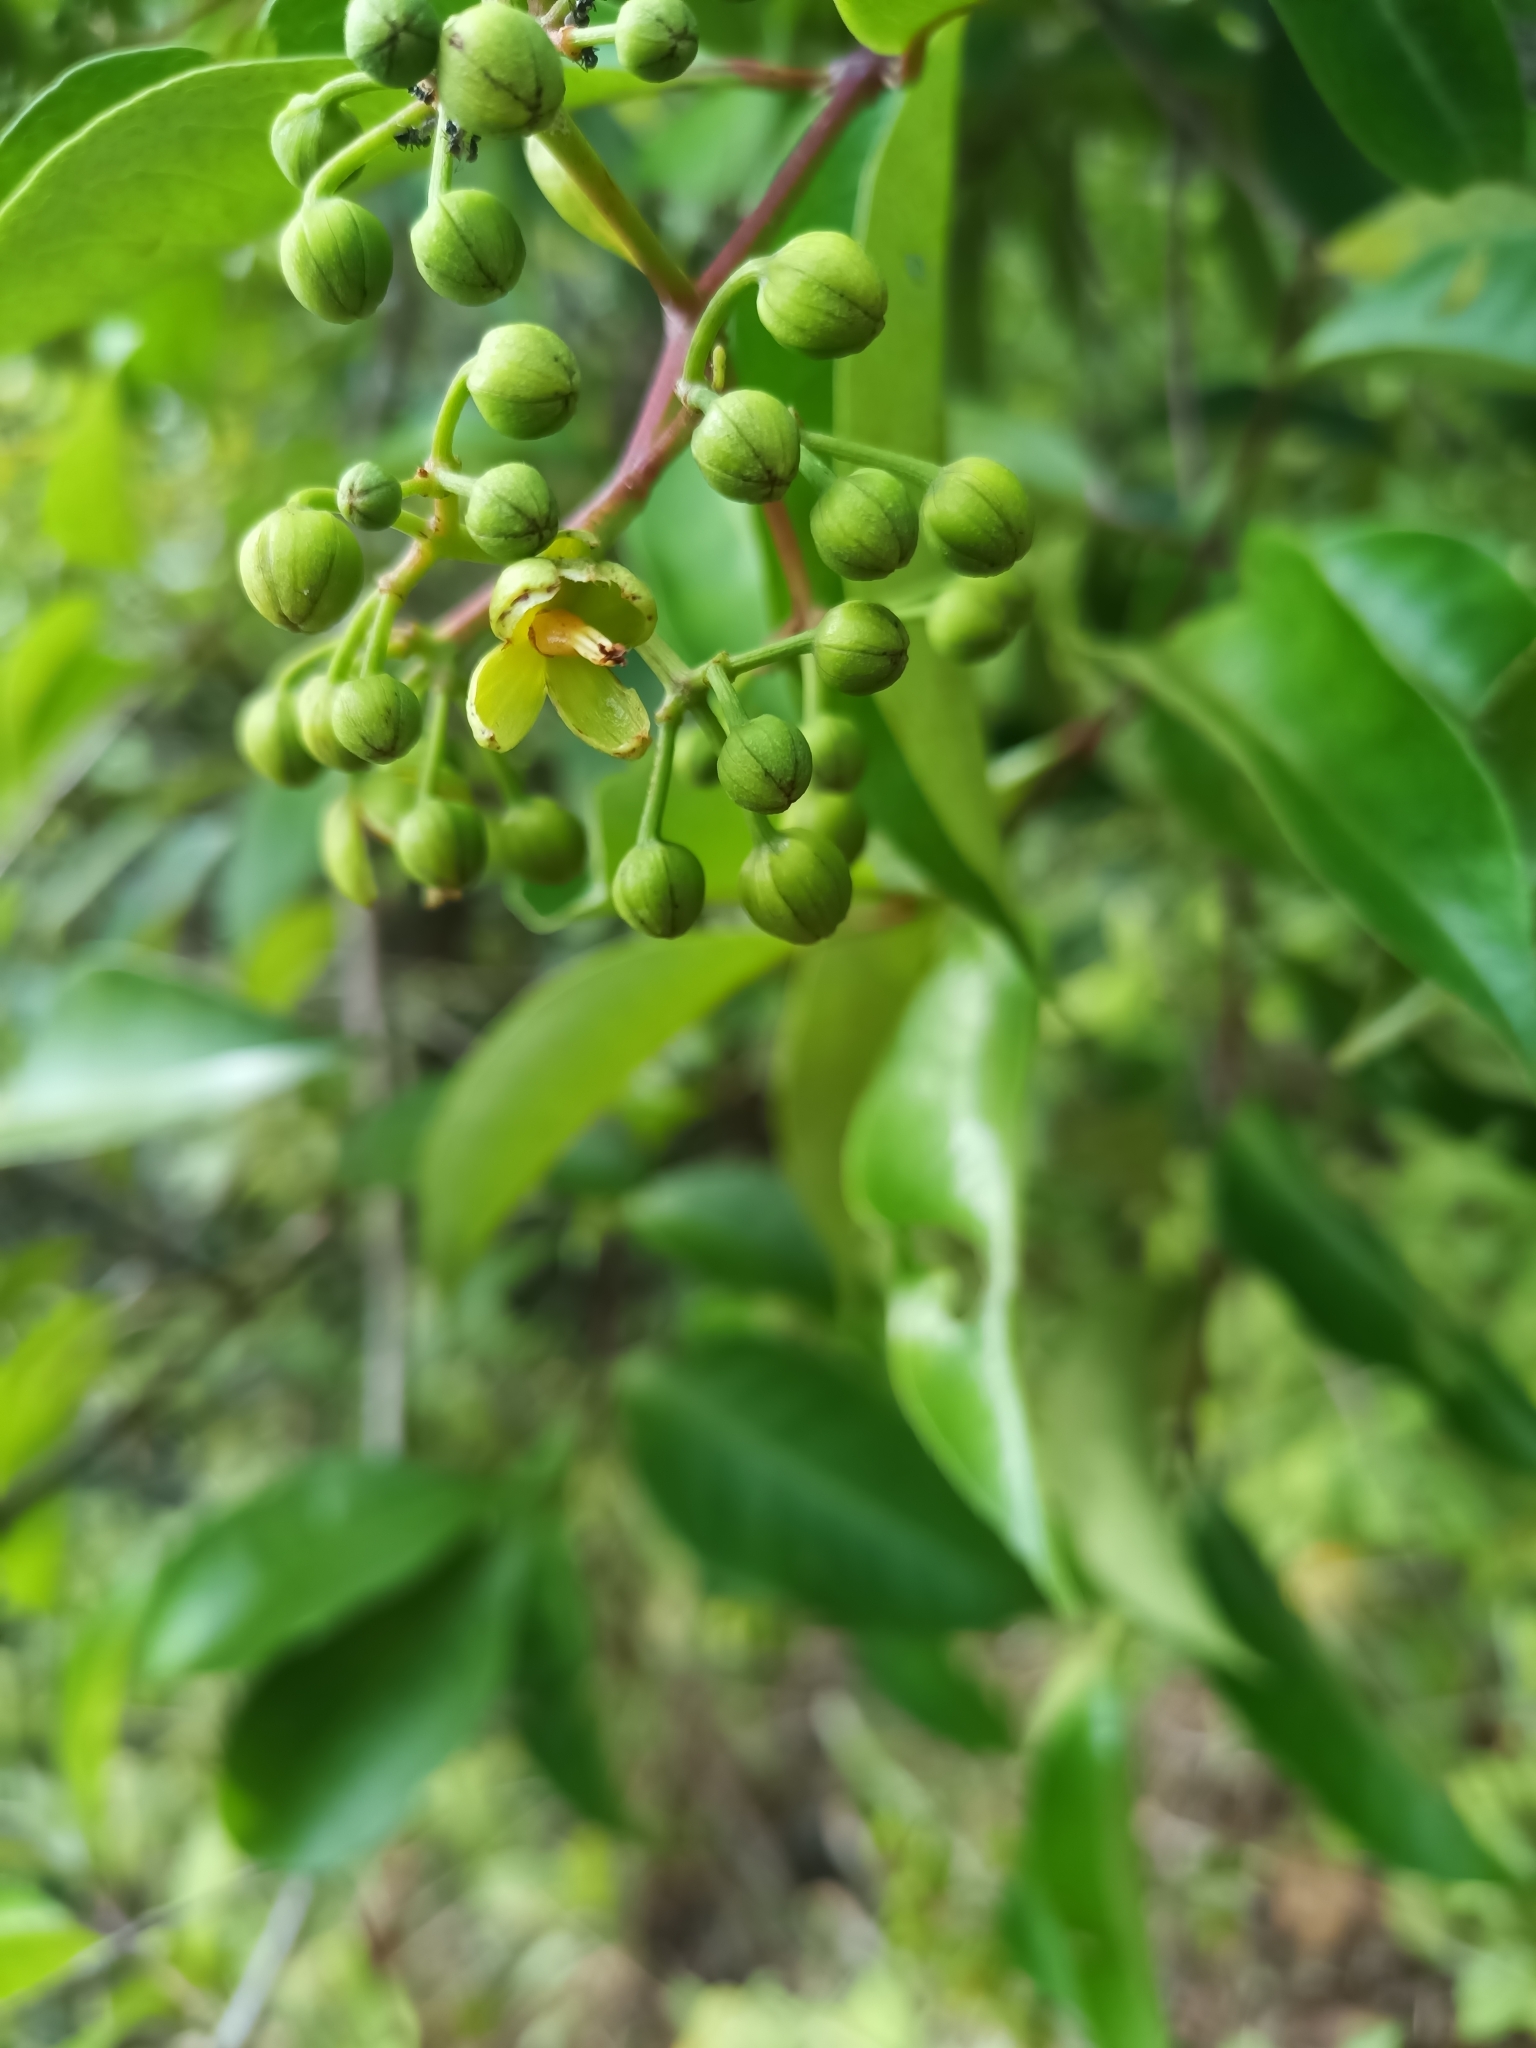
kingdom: Plantae
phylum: Tracheophyta
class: Magnoliopsida
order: Malpighiales
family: Hypericaceae
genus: Vismia
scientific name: Vismia cayennensis
